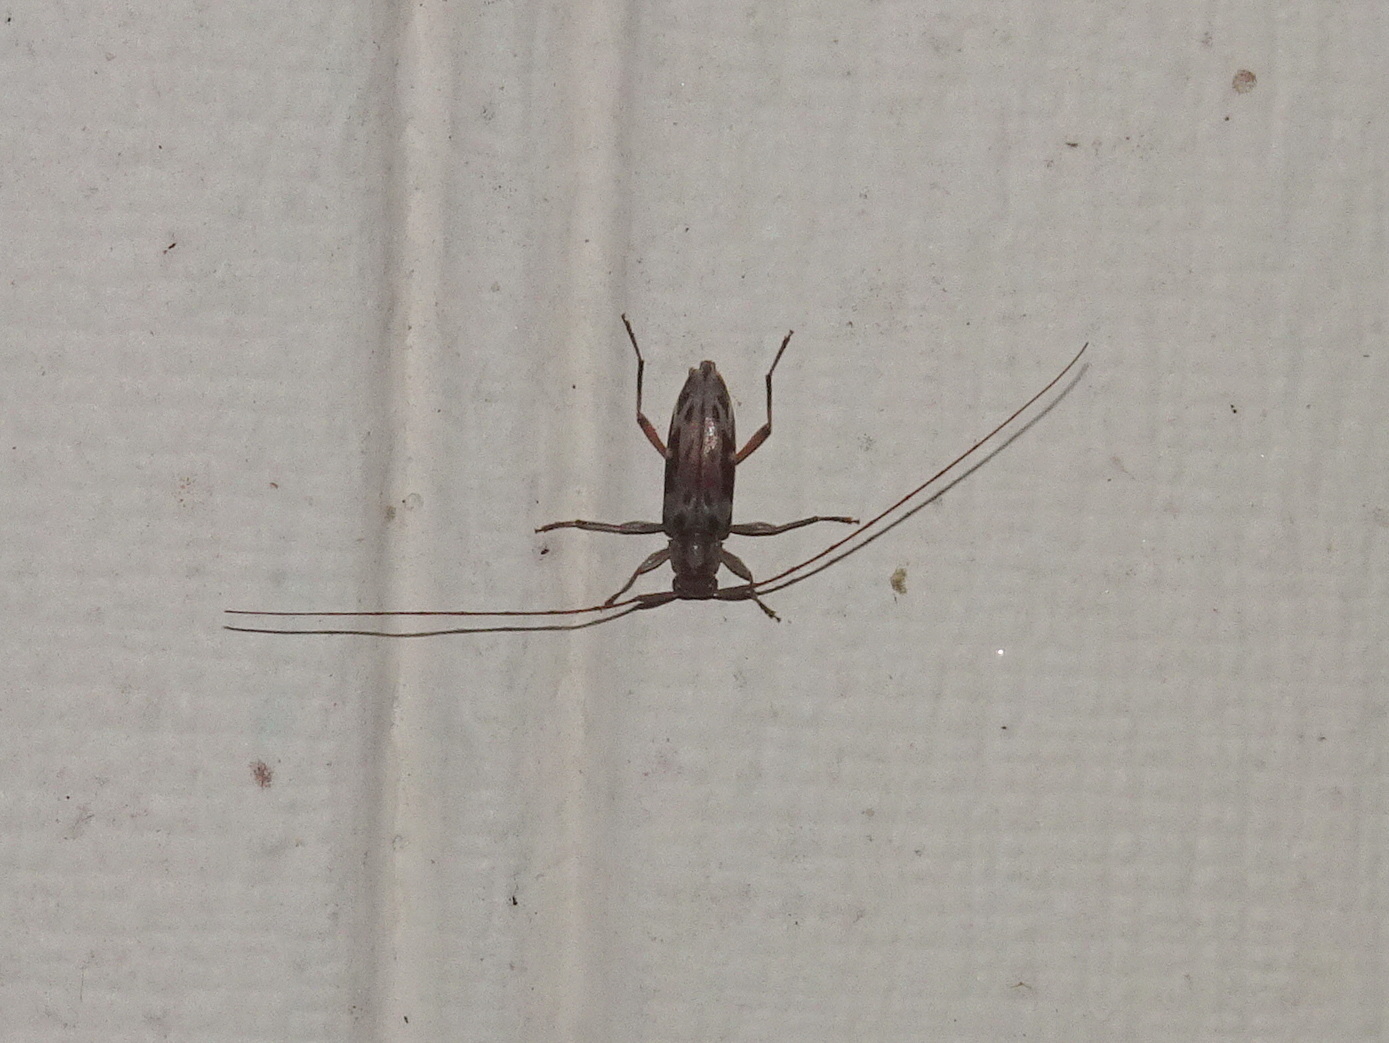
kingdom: Animalia
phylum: Arthropoda
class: Insecta
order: Coleoptera
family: Cerambycidae
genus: Lepturges
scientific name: Lepturges pictus
